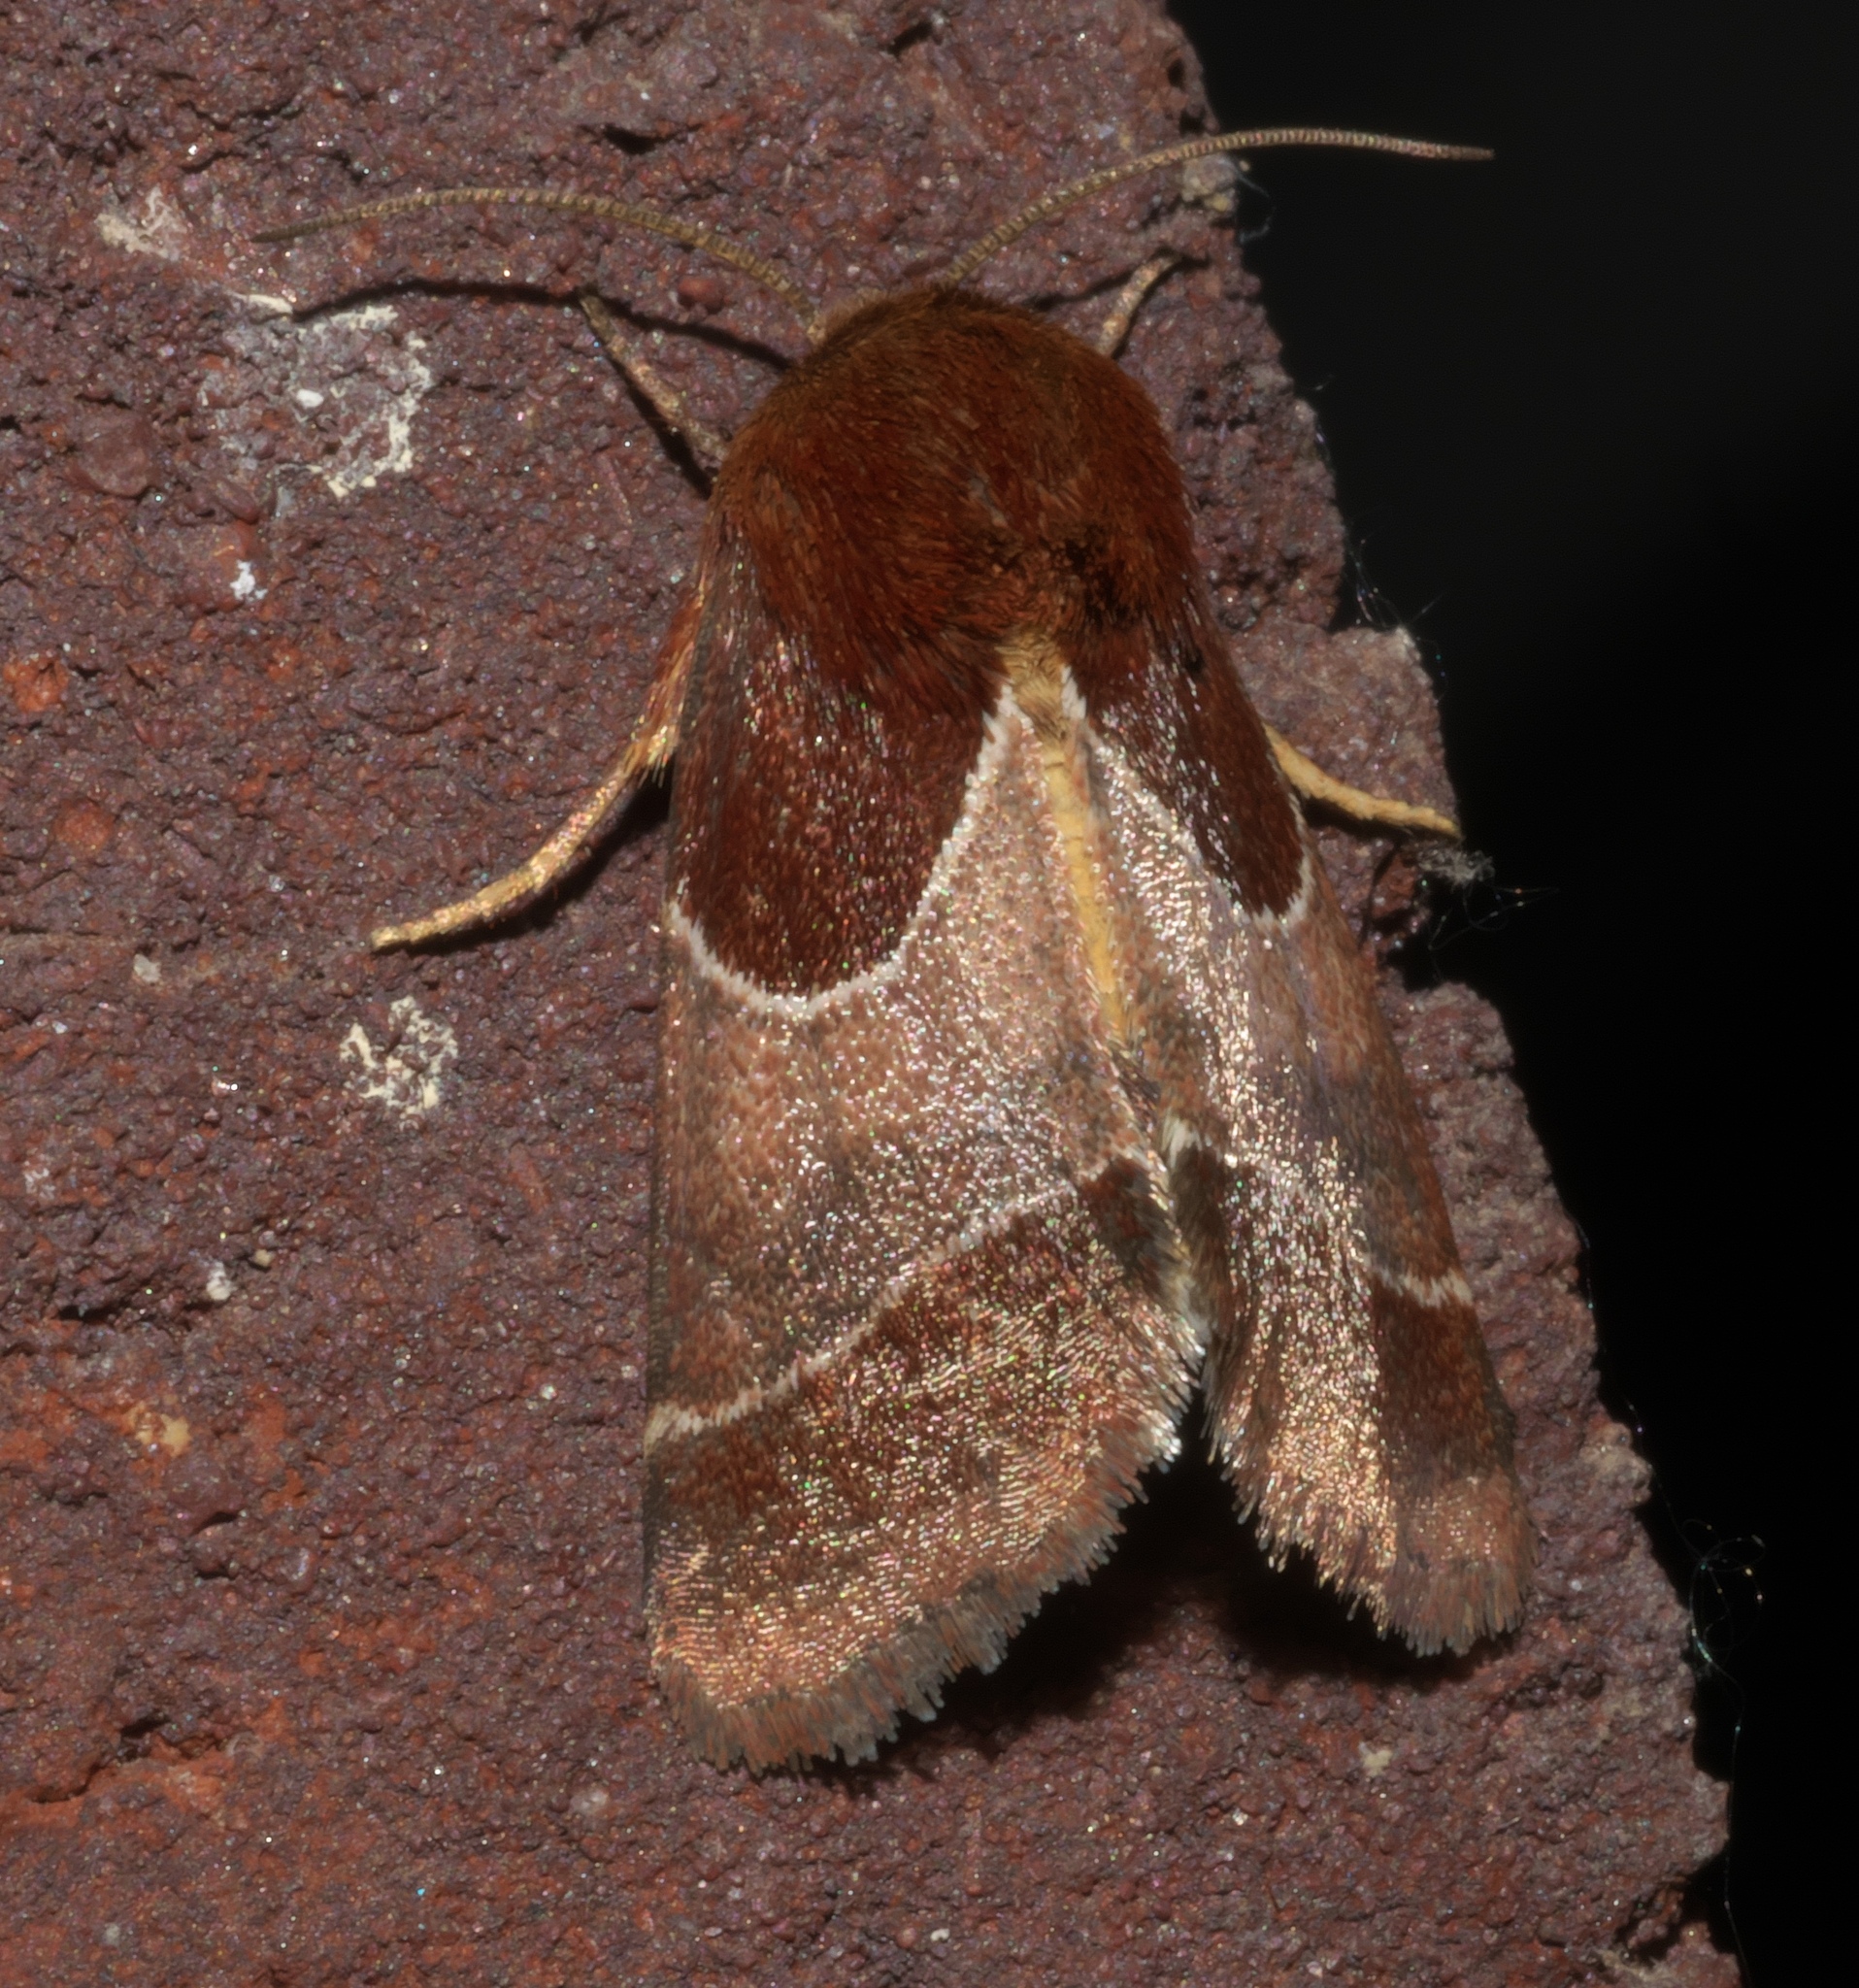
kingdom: Animalia
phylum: Arthropoda
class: Insecta
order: Lepidoptera
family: Noctuidae
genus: Schinia
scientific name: Schinia arcigera
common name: Arcigera flower moth
